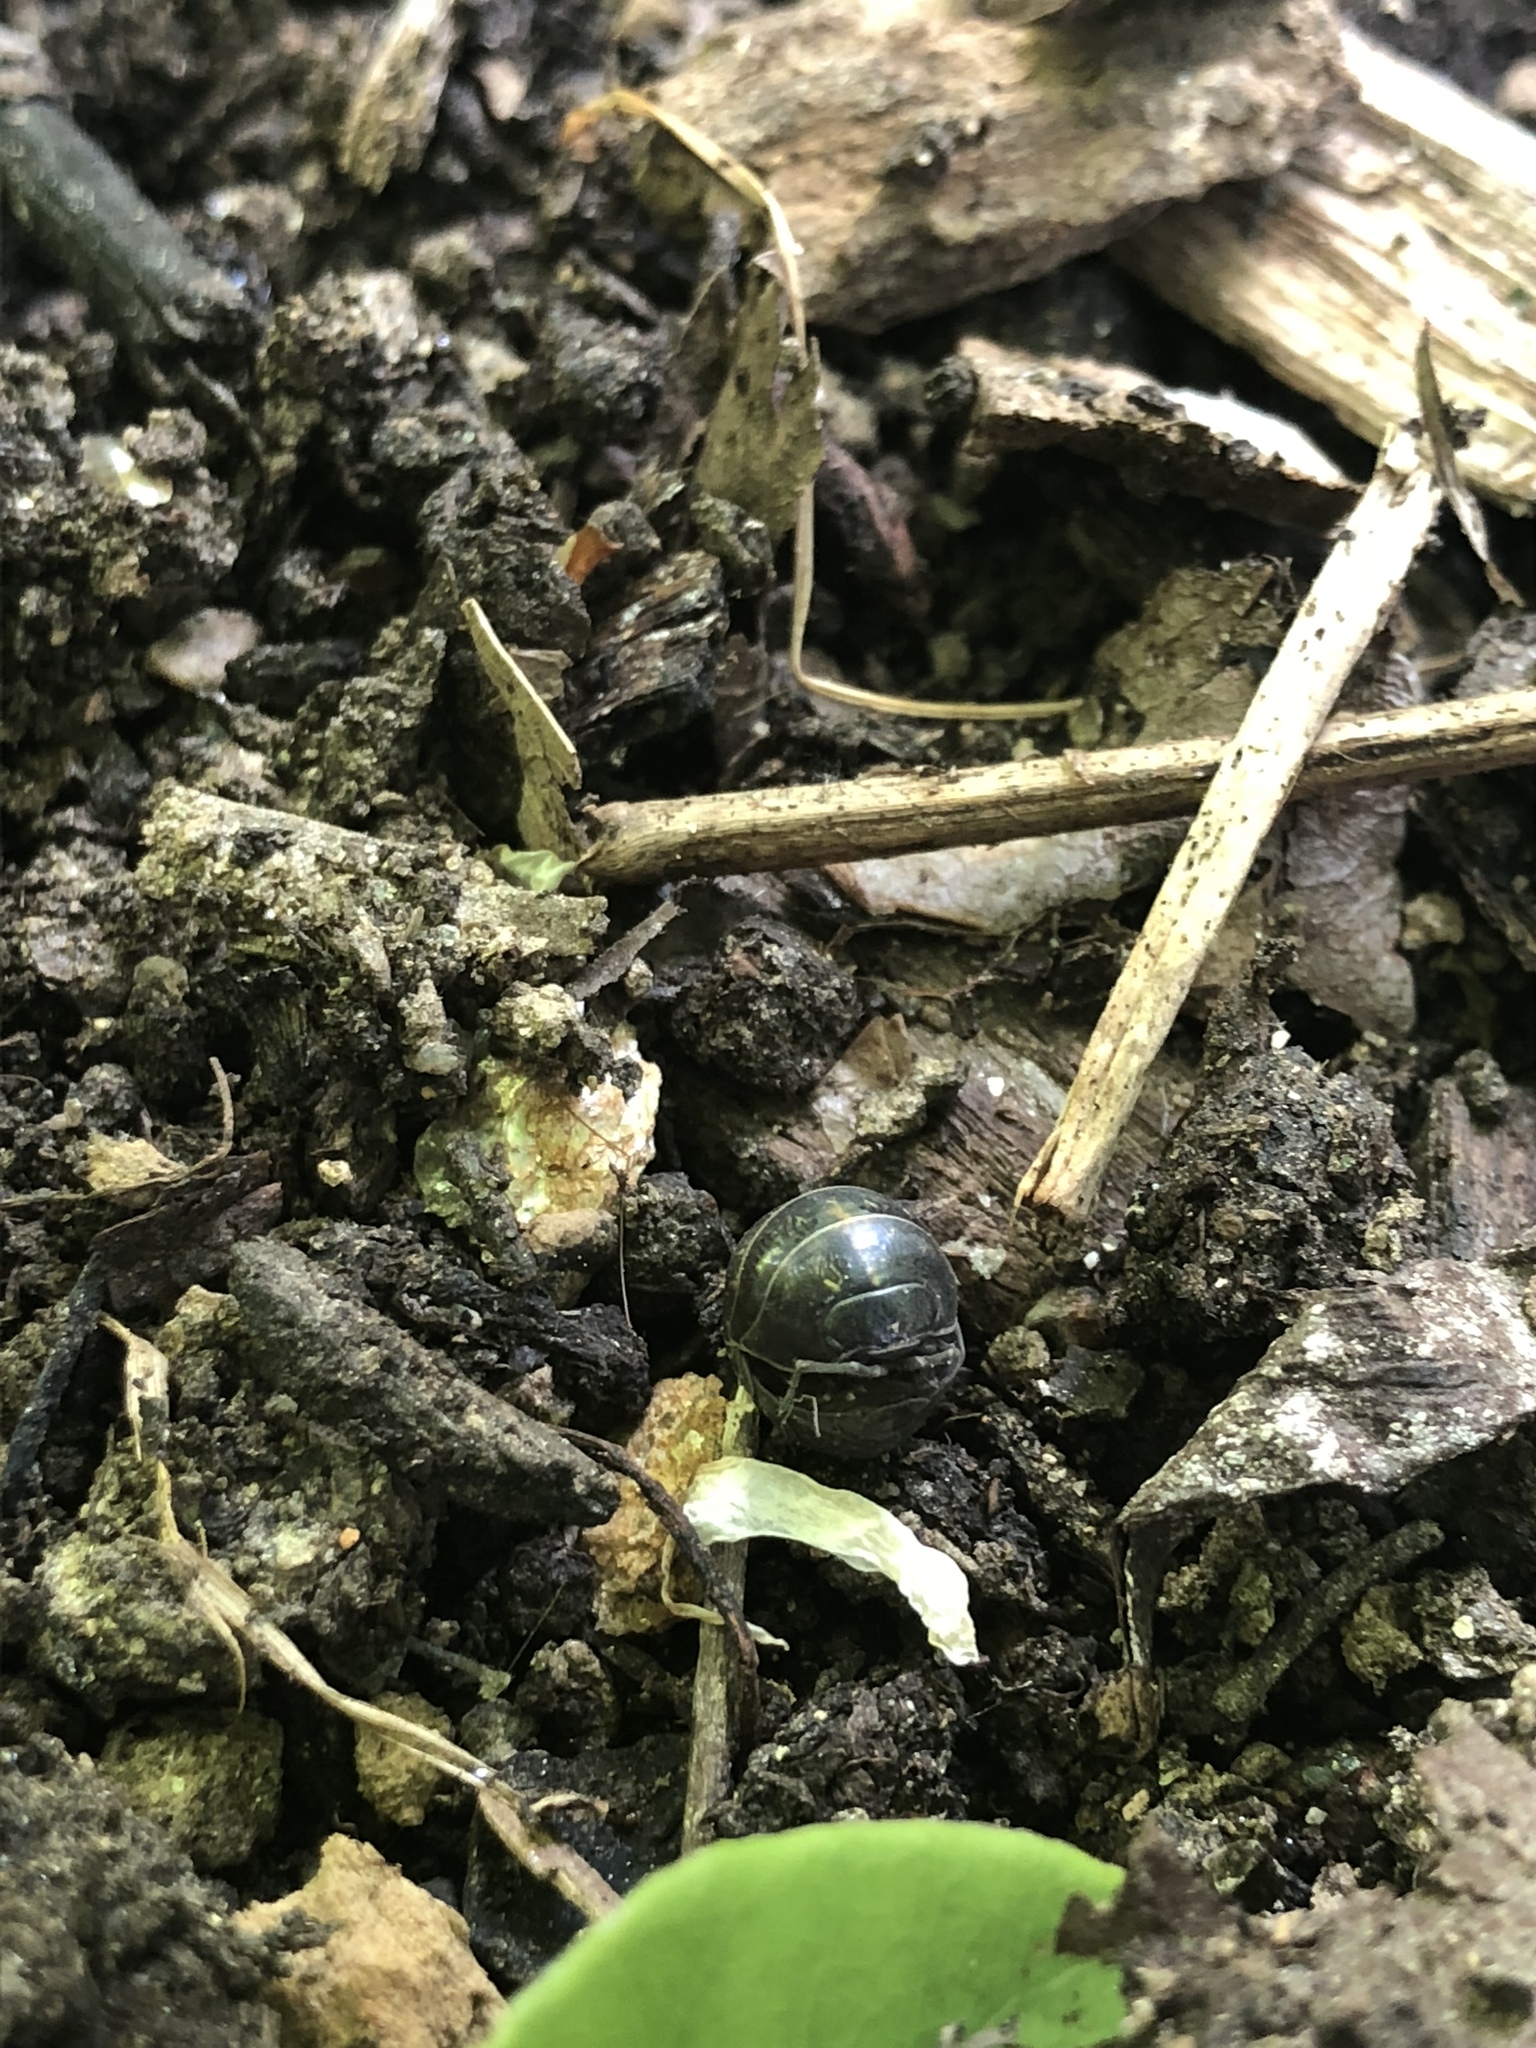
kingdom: Animalia
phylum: Arthropoda
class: Malacostraca
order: Isopoda
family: Armadillidiidae
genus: Armadillidium
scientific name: Armadillidium vulgare
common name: Common pill woodlouse
